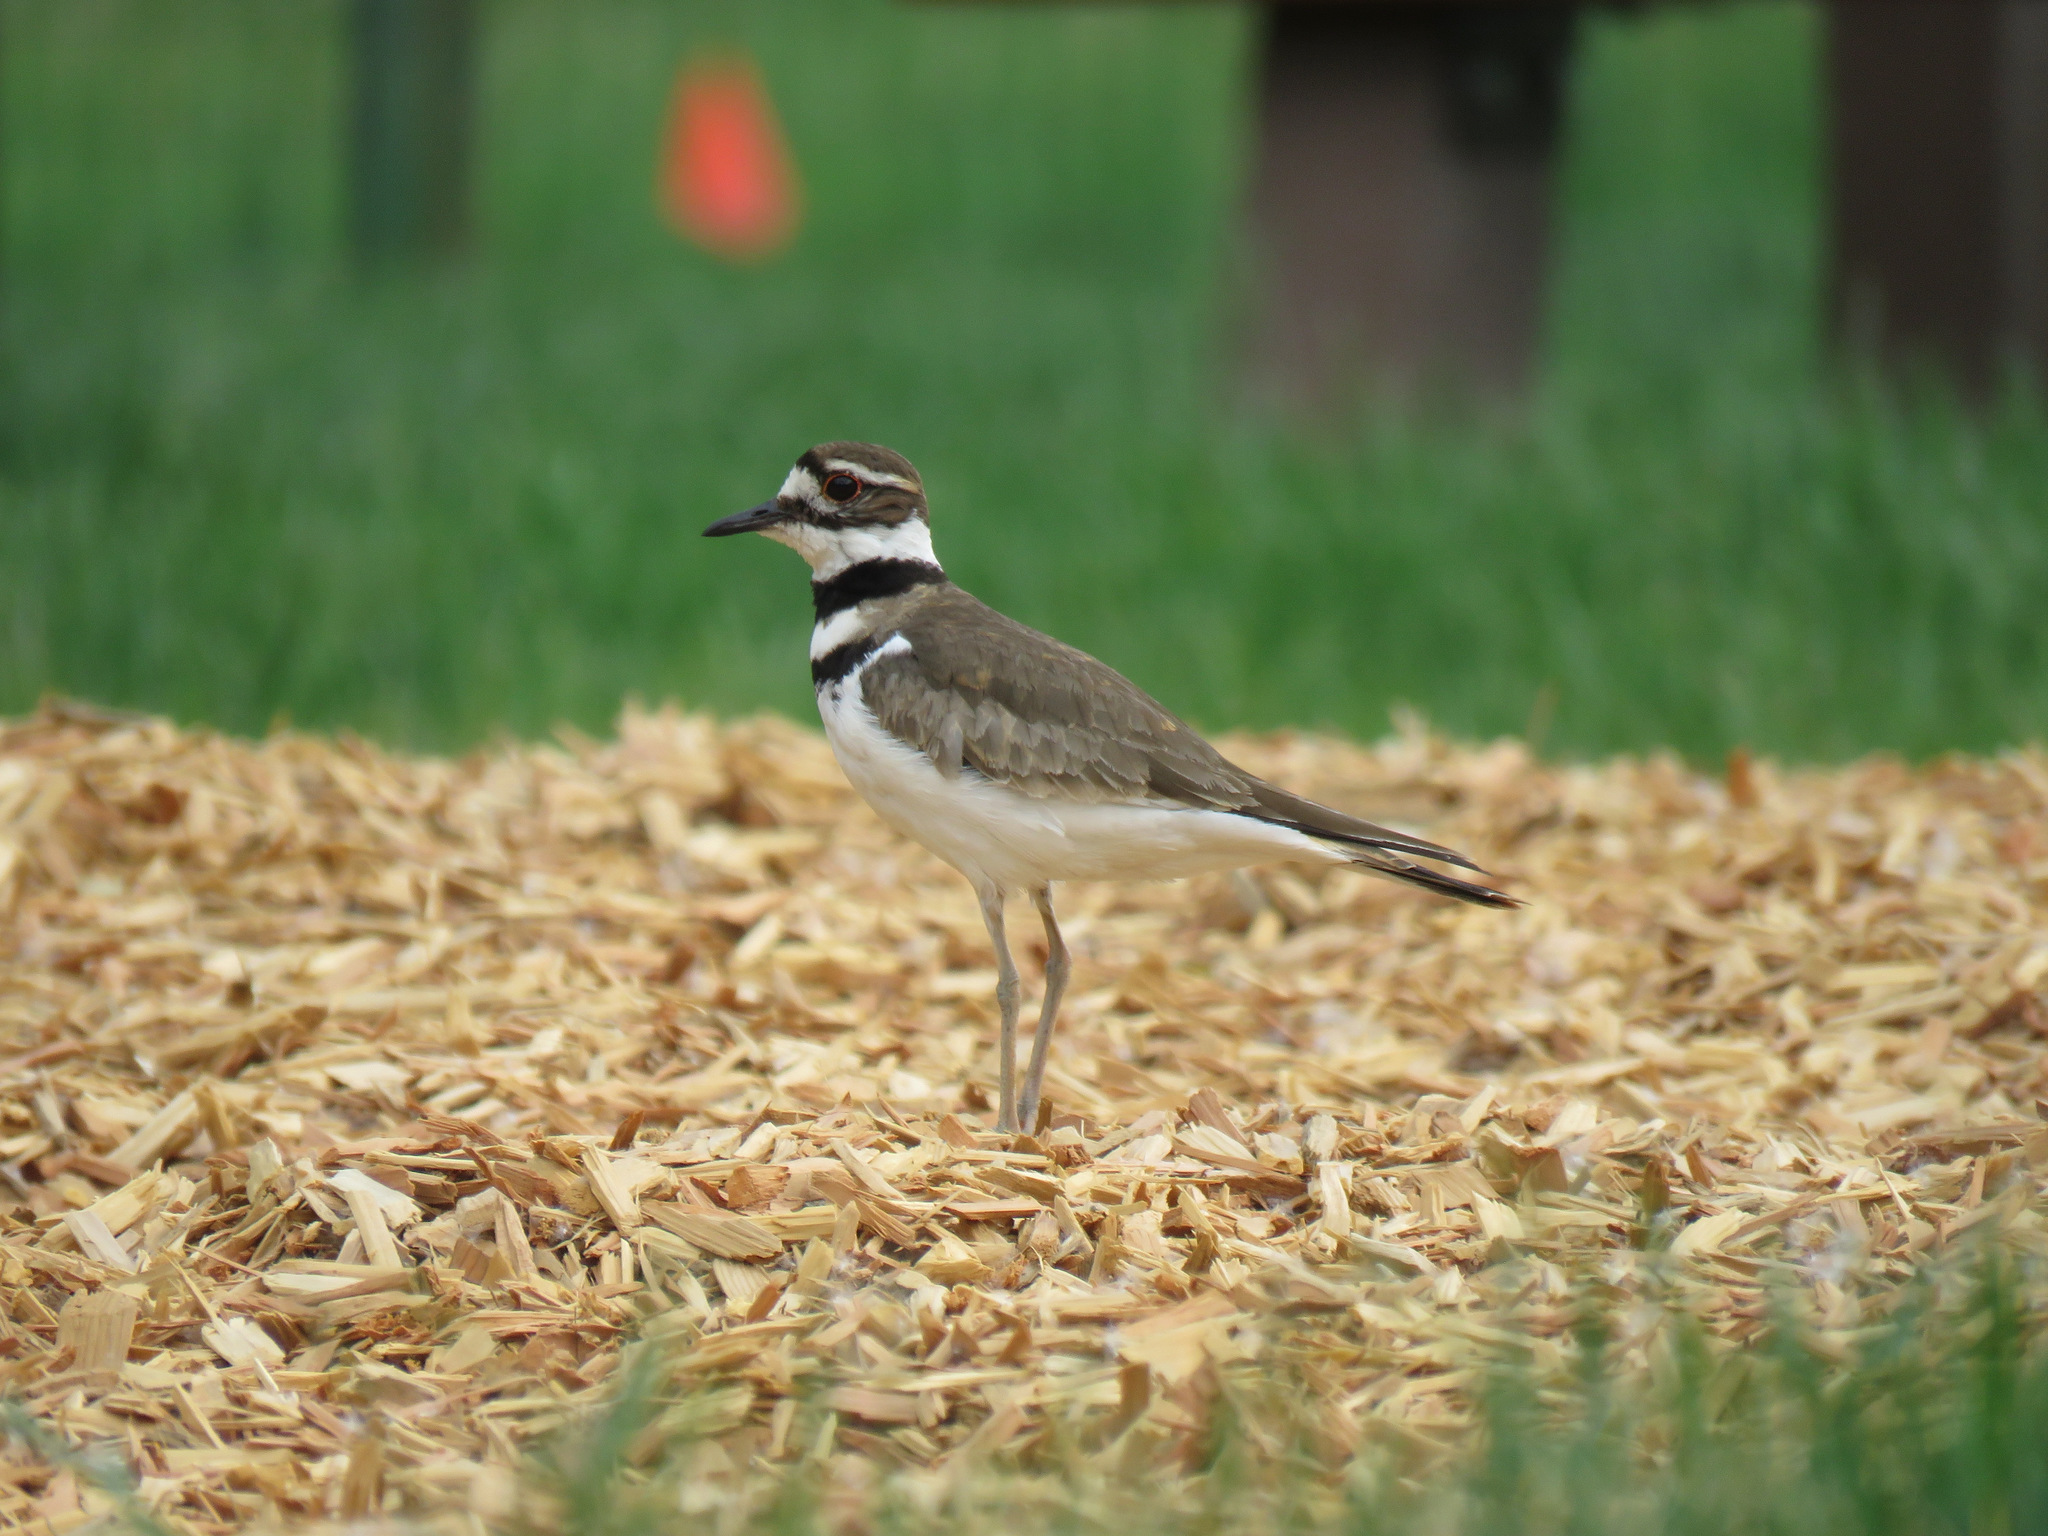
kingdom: Animalia
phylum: Chordata
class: Aves
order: Charadriiformes
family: Charadriidae
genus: Charadrius
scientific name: Charadrius vociferus
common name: Killdeer
